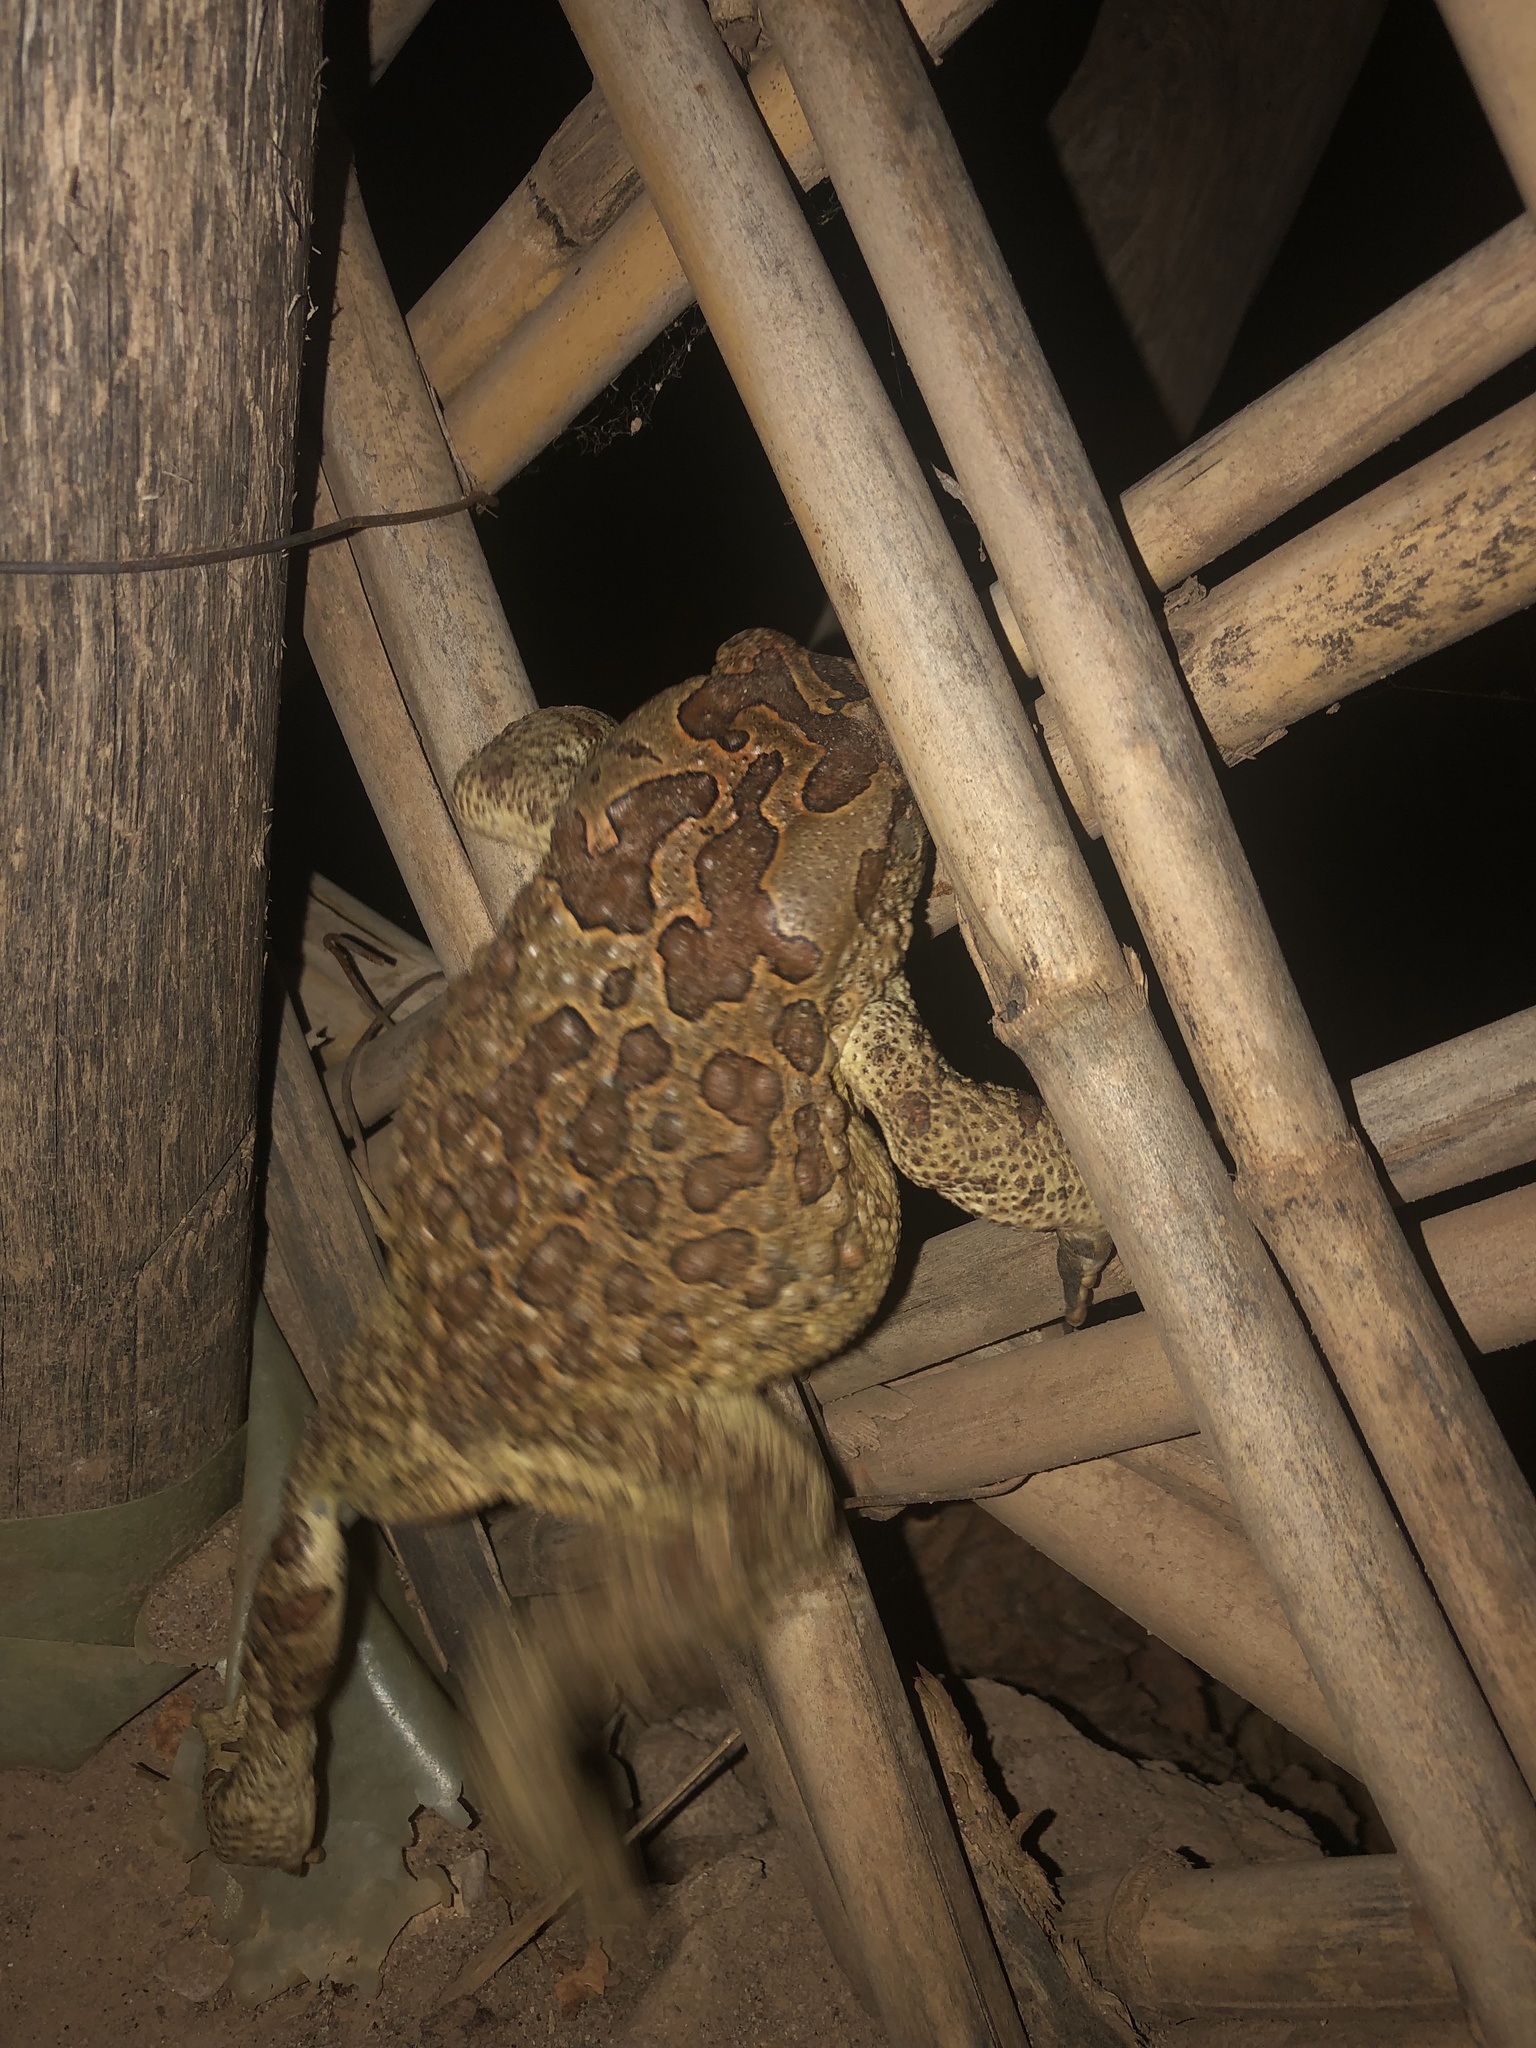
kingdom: Animalia
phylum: Chordata
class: Amphibia
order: Anura
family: Bufonidae
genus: Sclerophrys
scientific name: Sclerophrys mauritanica
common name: Berber toad
